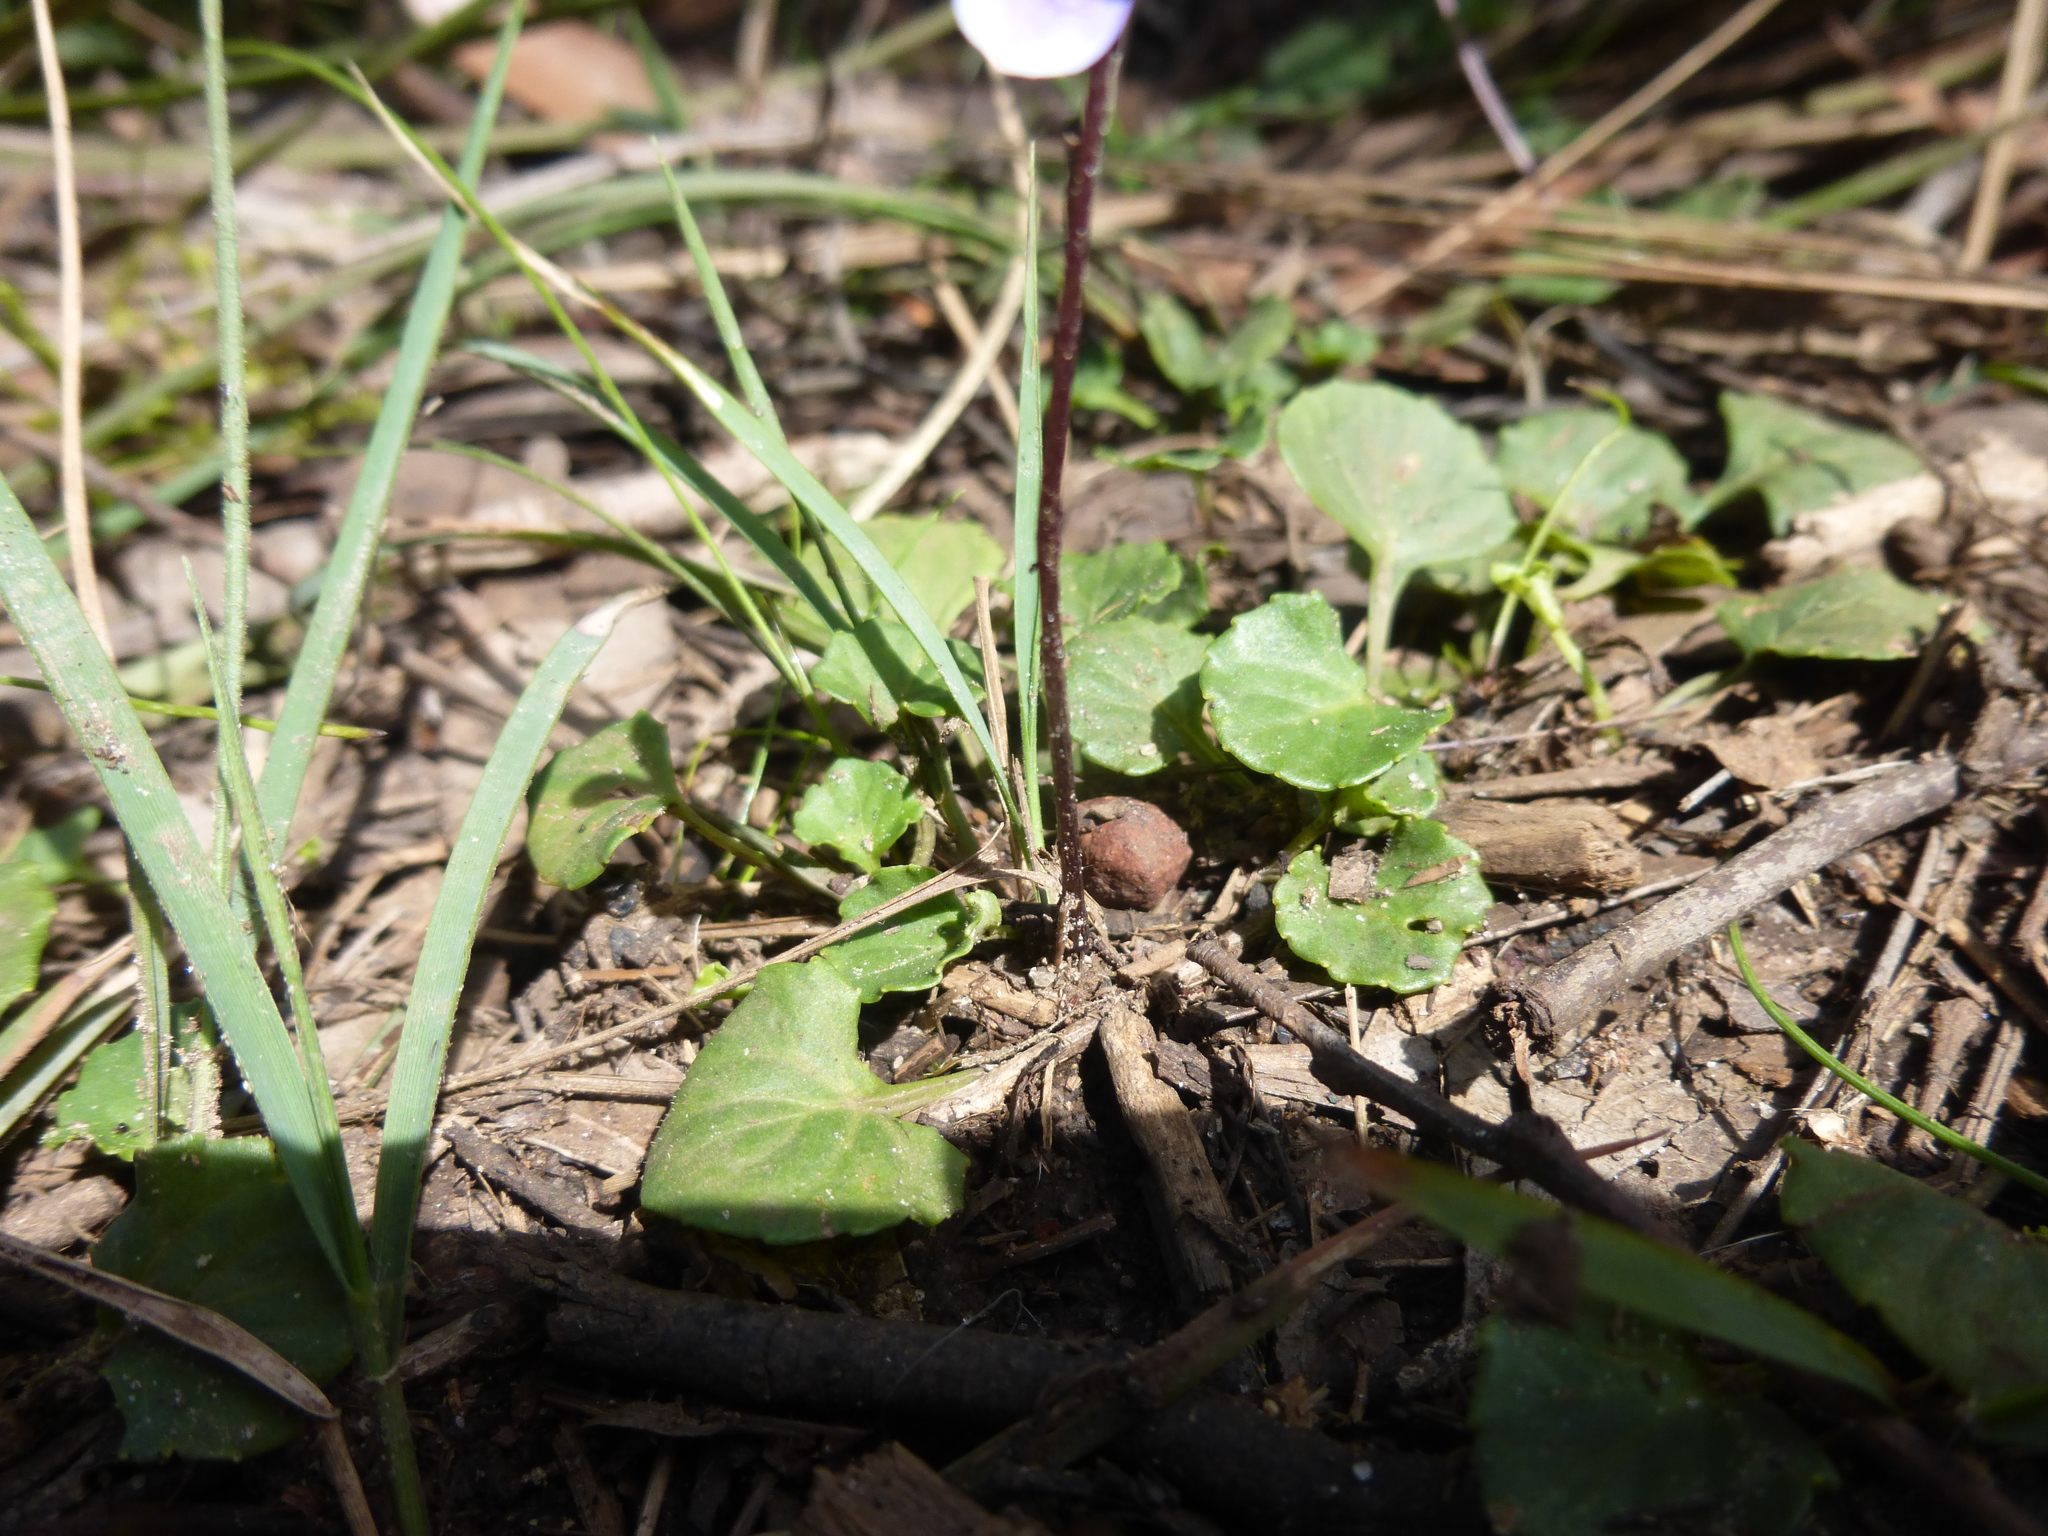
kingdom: Plantae
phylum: Tracheophyta
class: Magnoliopsida
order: Malpighiales
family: Violaceae
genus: Viola
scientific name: Viola hederacea
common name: Australian violet
